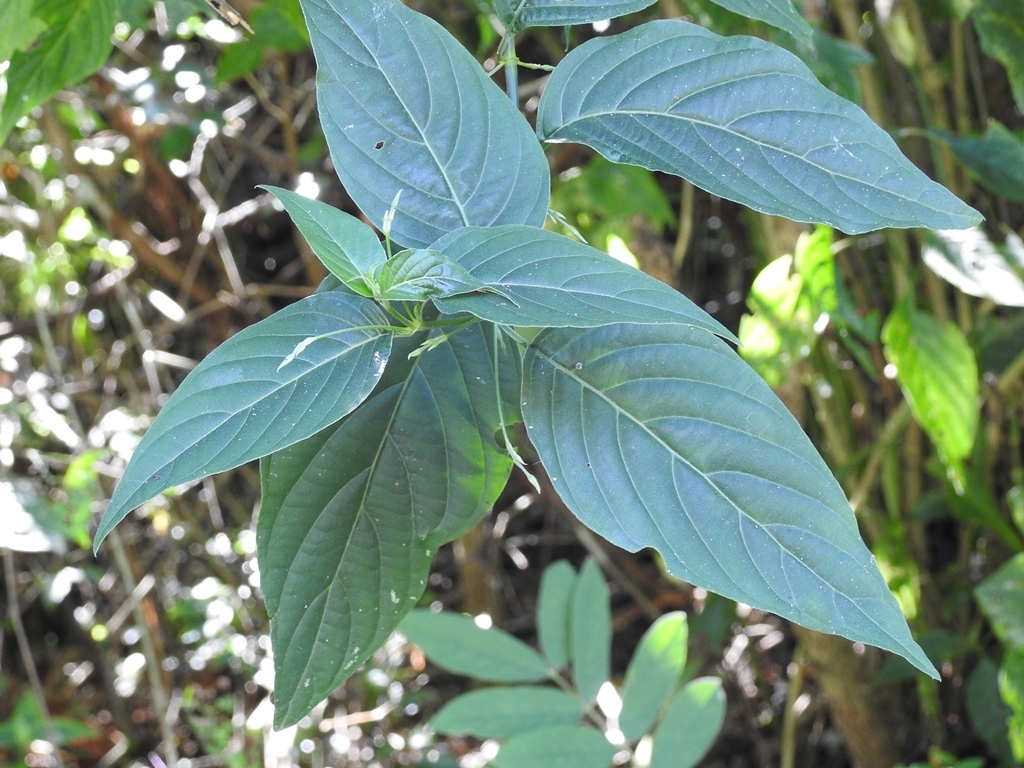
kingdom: Plantae
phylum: Tracheophyta
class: Magnoliopsida
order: Lamiales
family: Acanthaceae
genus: Dicliptera
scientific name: Dicliptera sciadephora
